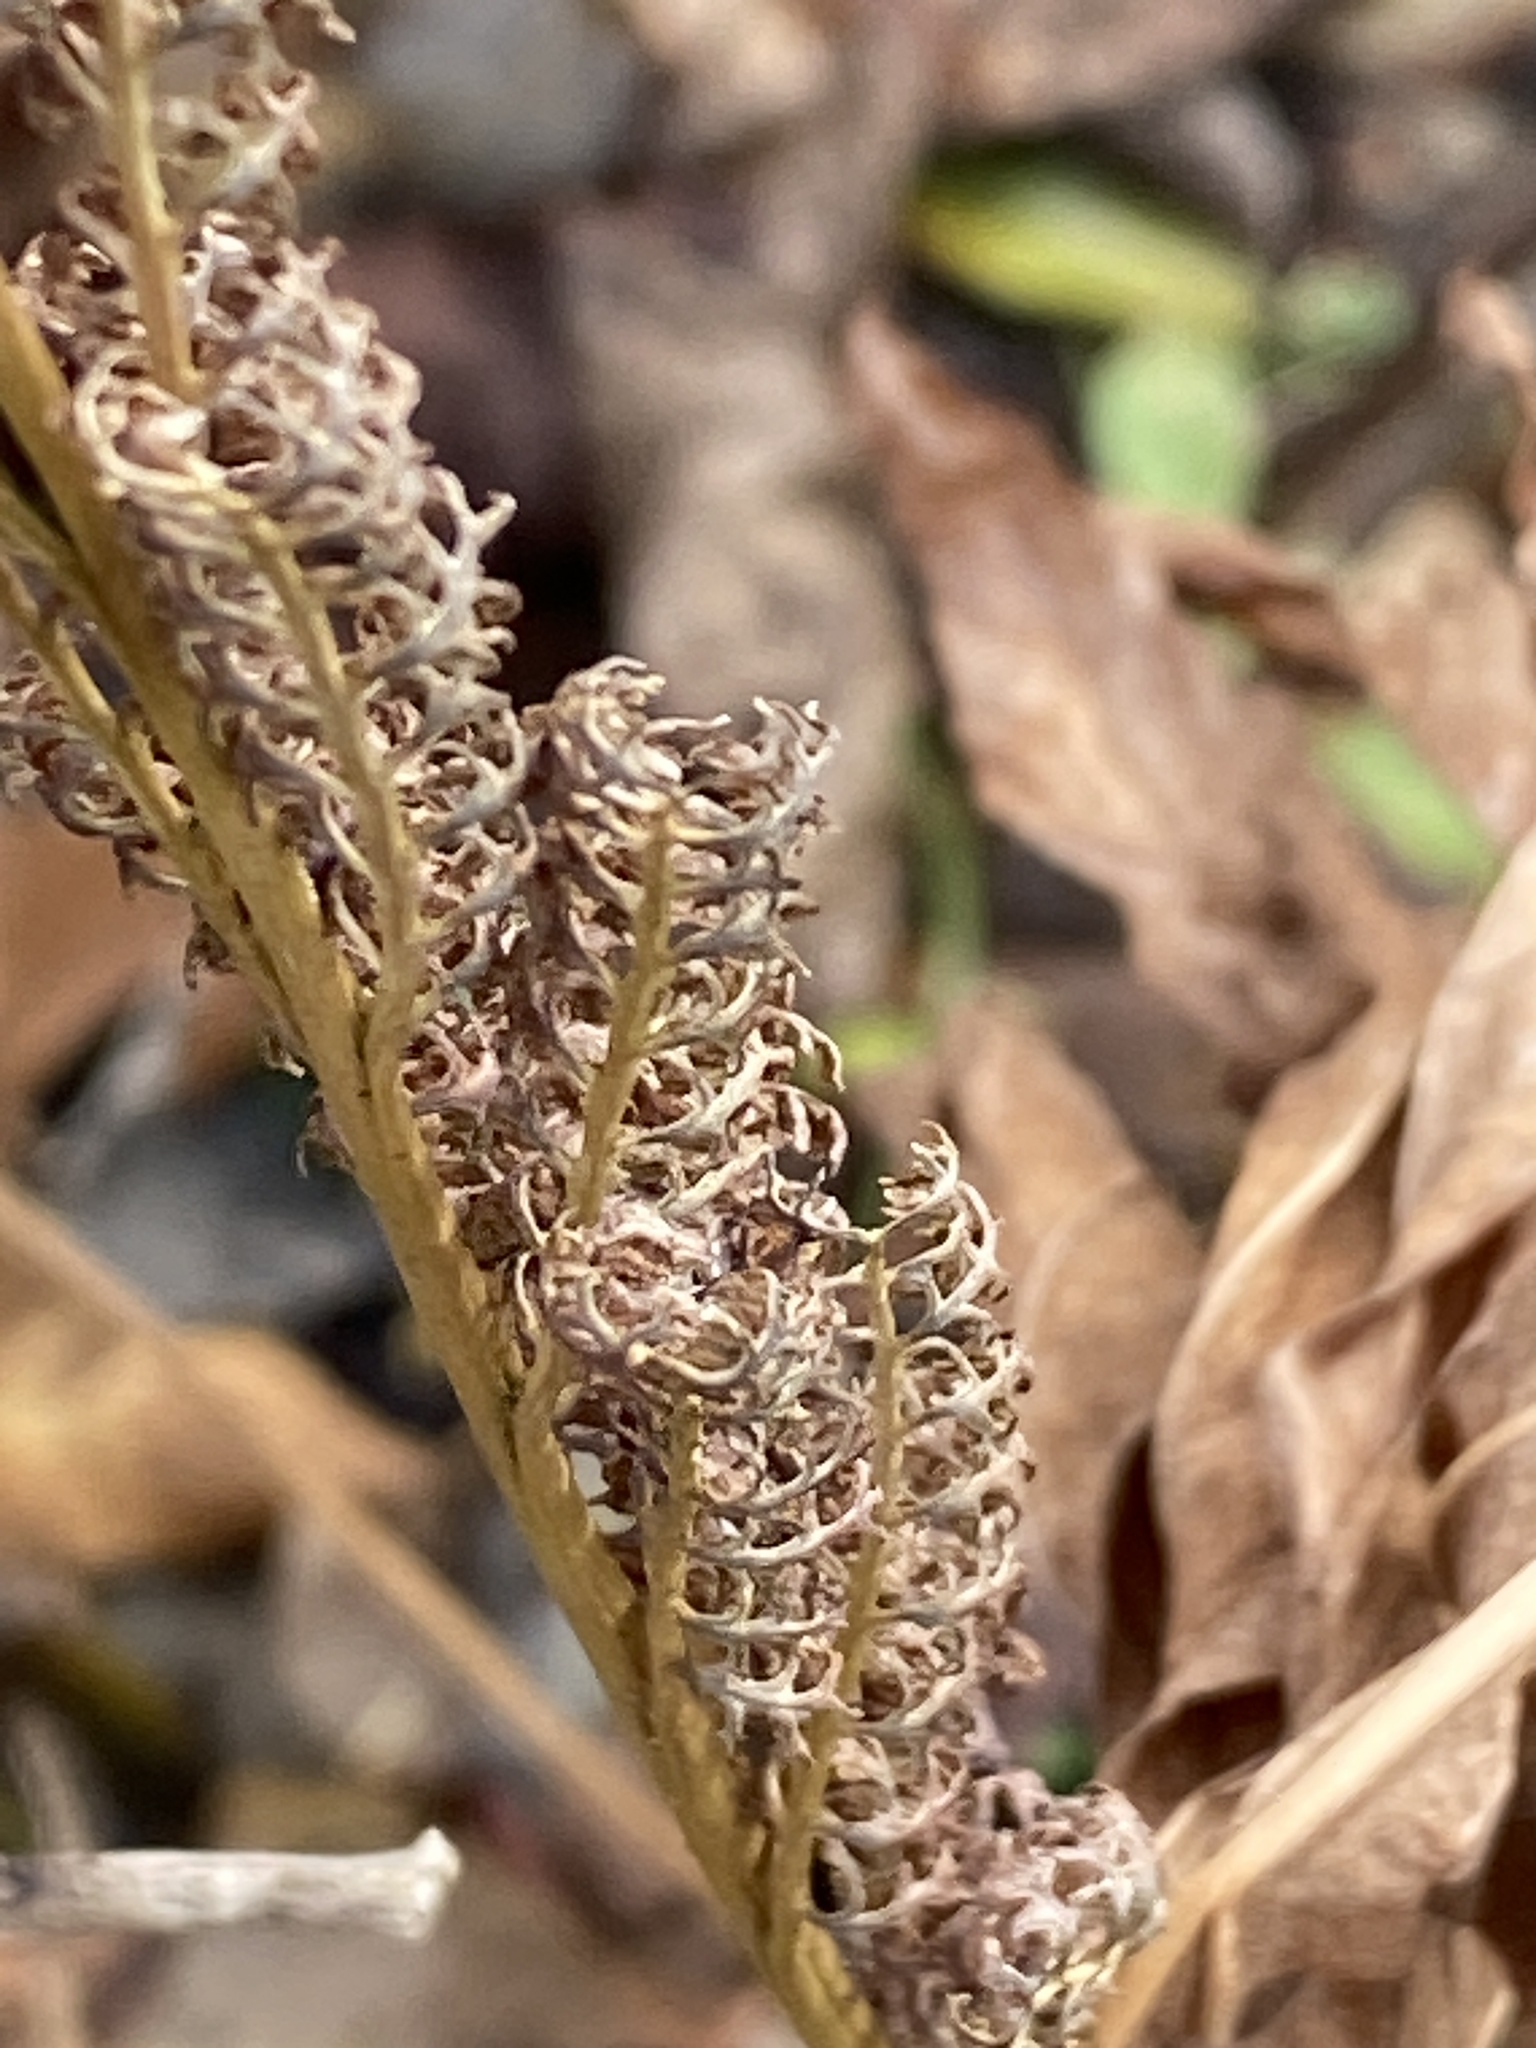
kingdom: Plantae
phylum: Tracheophyta
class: Polypodiopsida
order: Polypodiales
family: Onocleaceae
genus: Onoclea
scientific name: Onoclea sensibilis
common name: Sensitive fern
